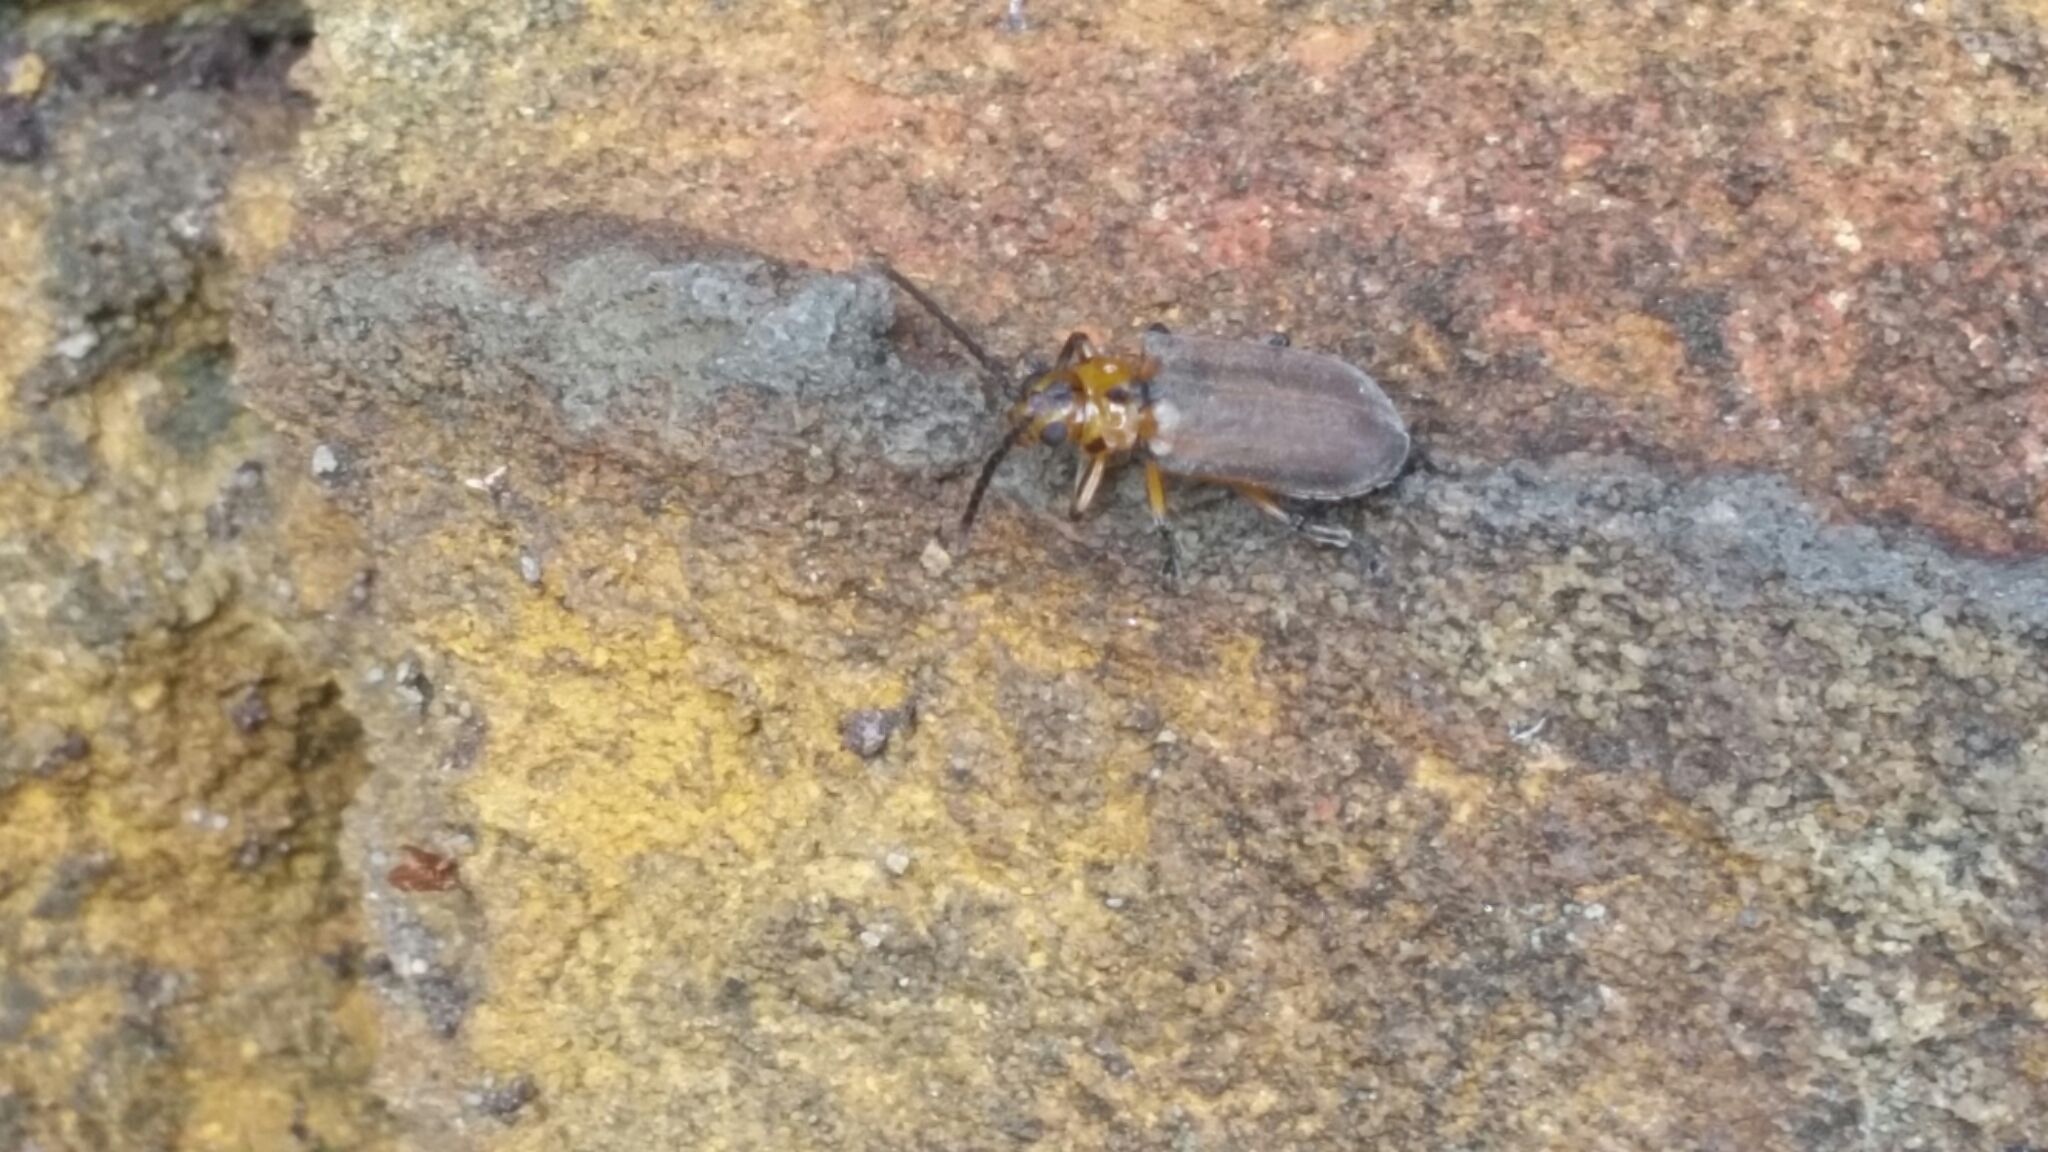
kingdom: Animalia
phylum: Arthropoda
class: Insecta
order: Coleoptera
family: Chrysomelidae
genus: Poneridia
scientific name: Poneridia semipullata
